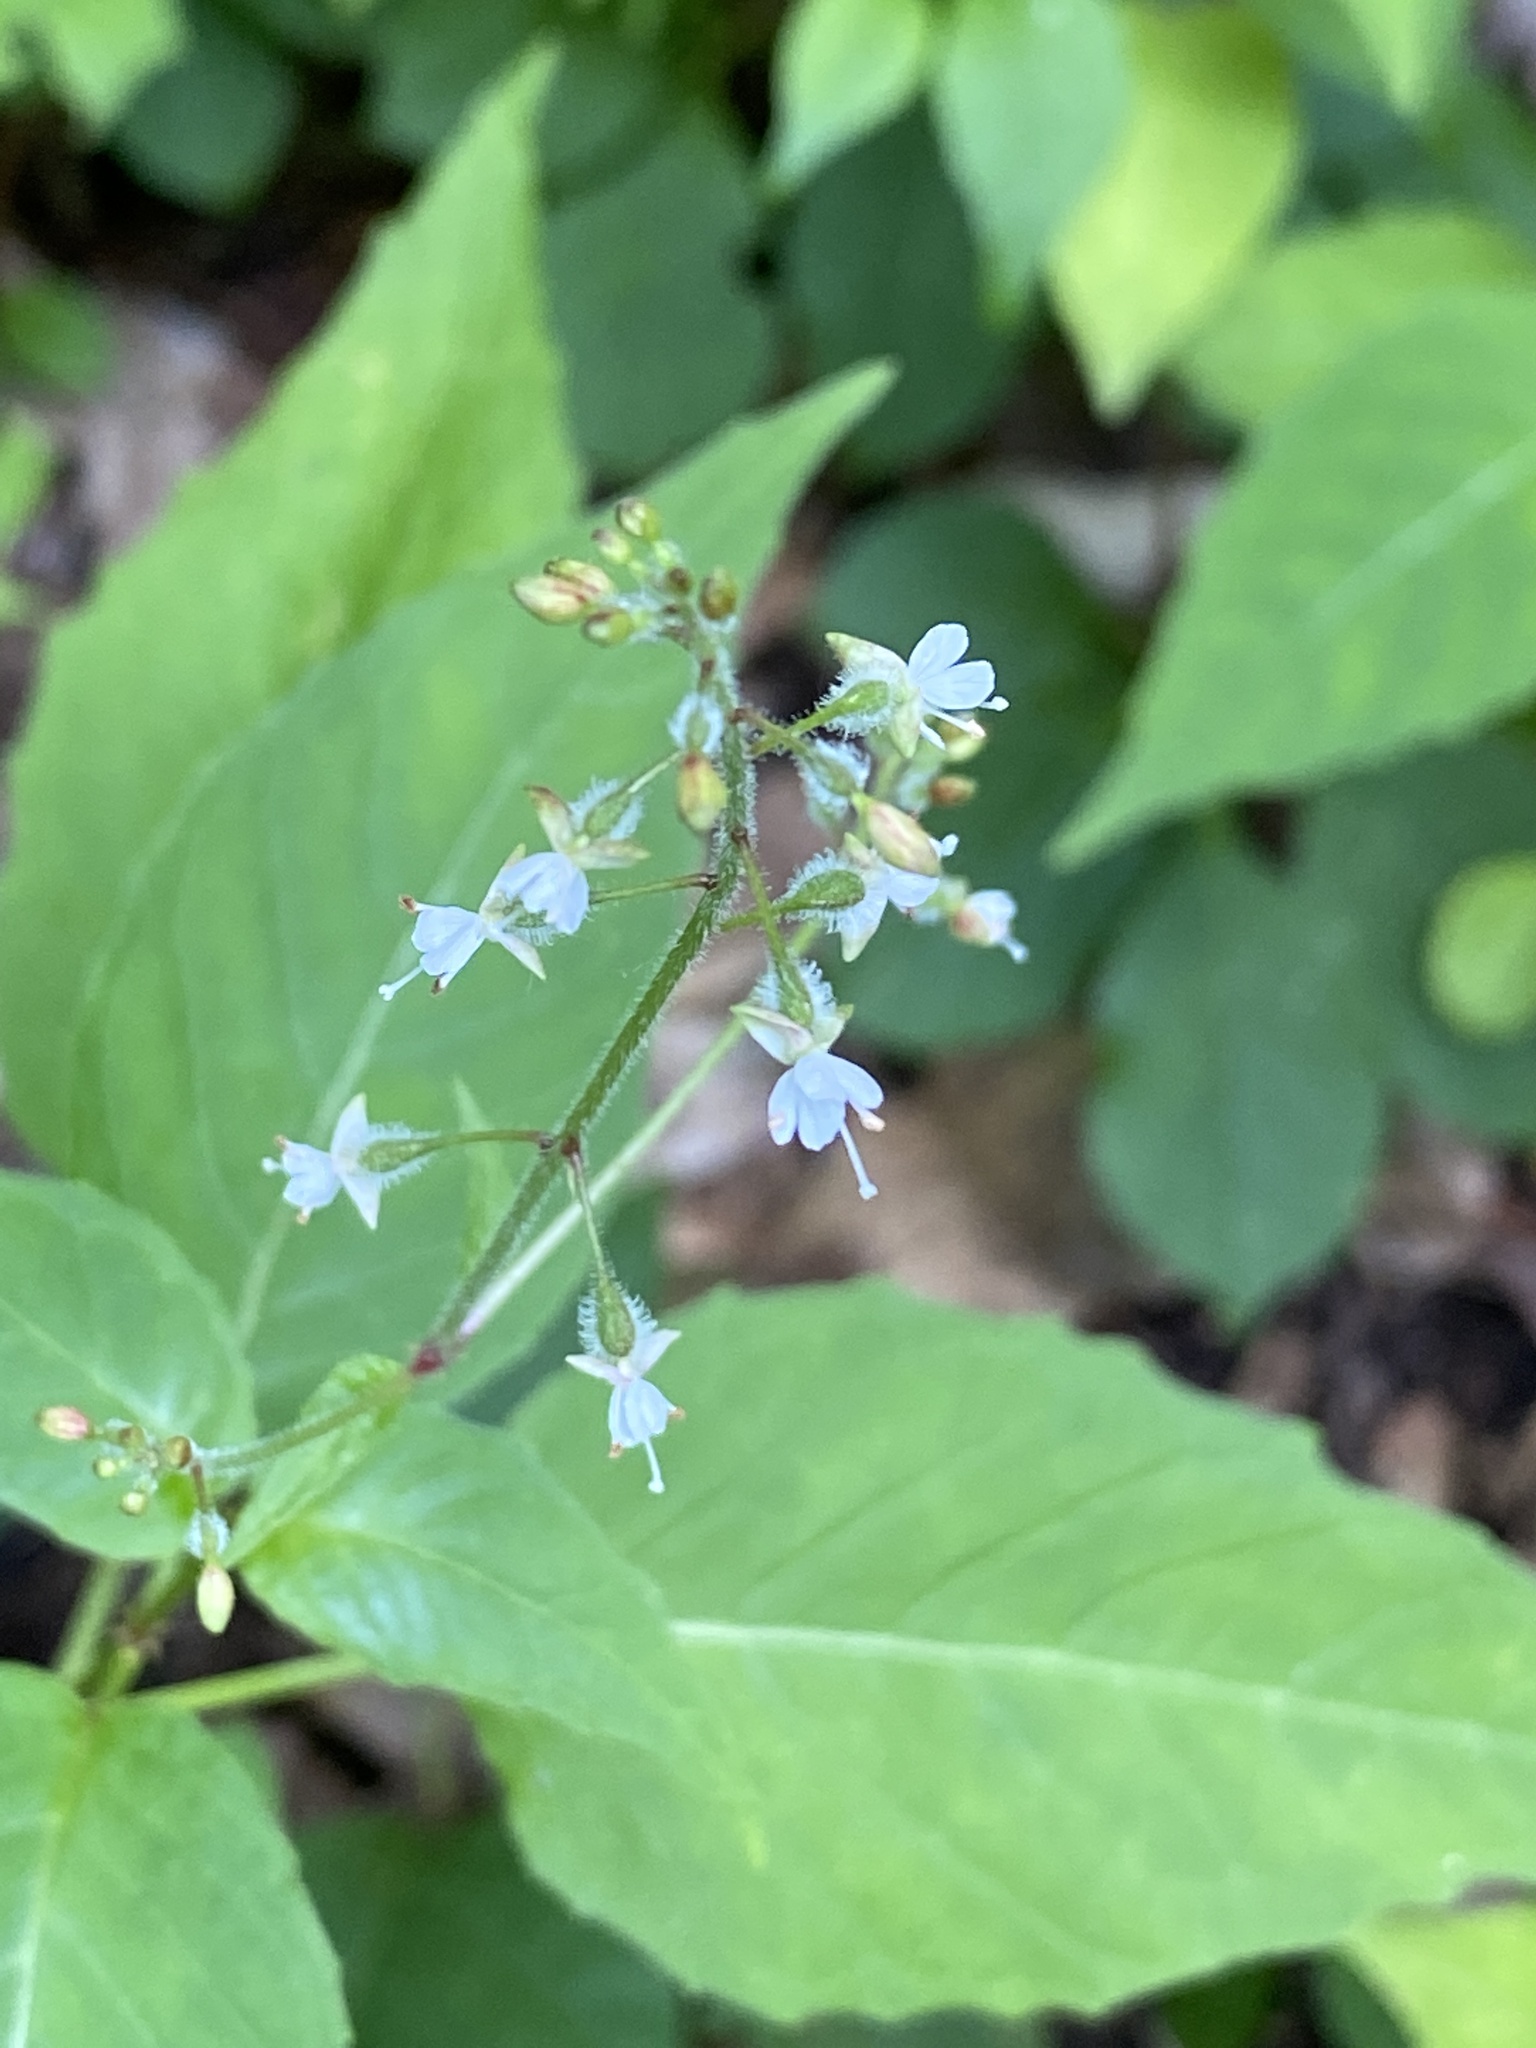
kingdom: Plantae
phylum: Tracheophyta
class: Magnoliopsida
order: Myrtales
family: Onagraceae
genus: Circaea
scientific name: Circaea canadensis
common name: Broad-leaved enchanter's nightshade
